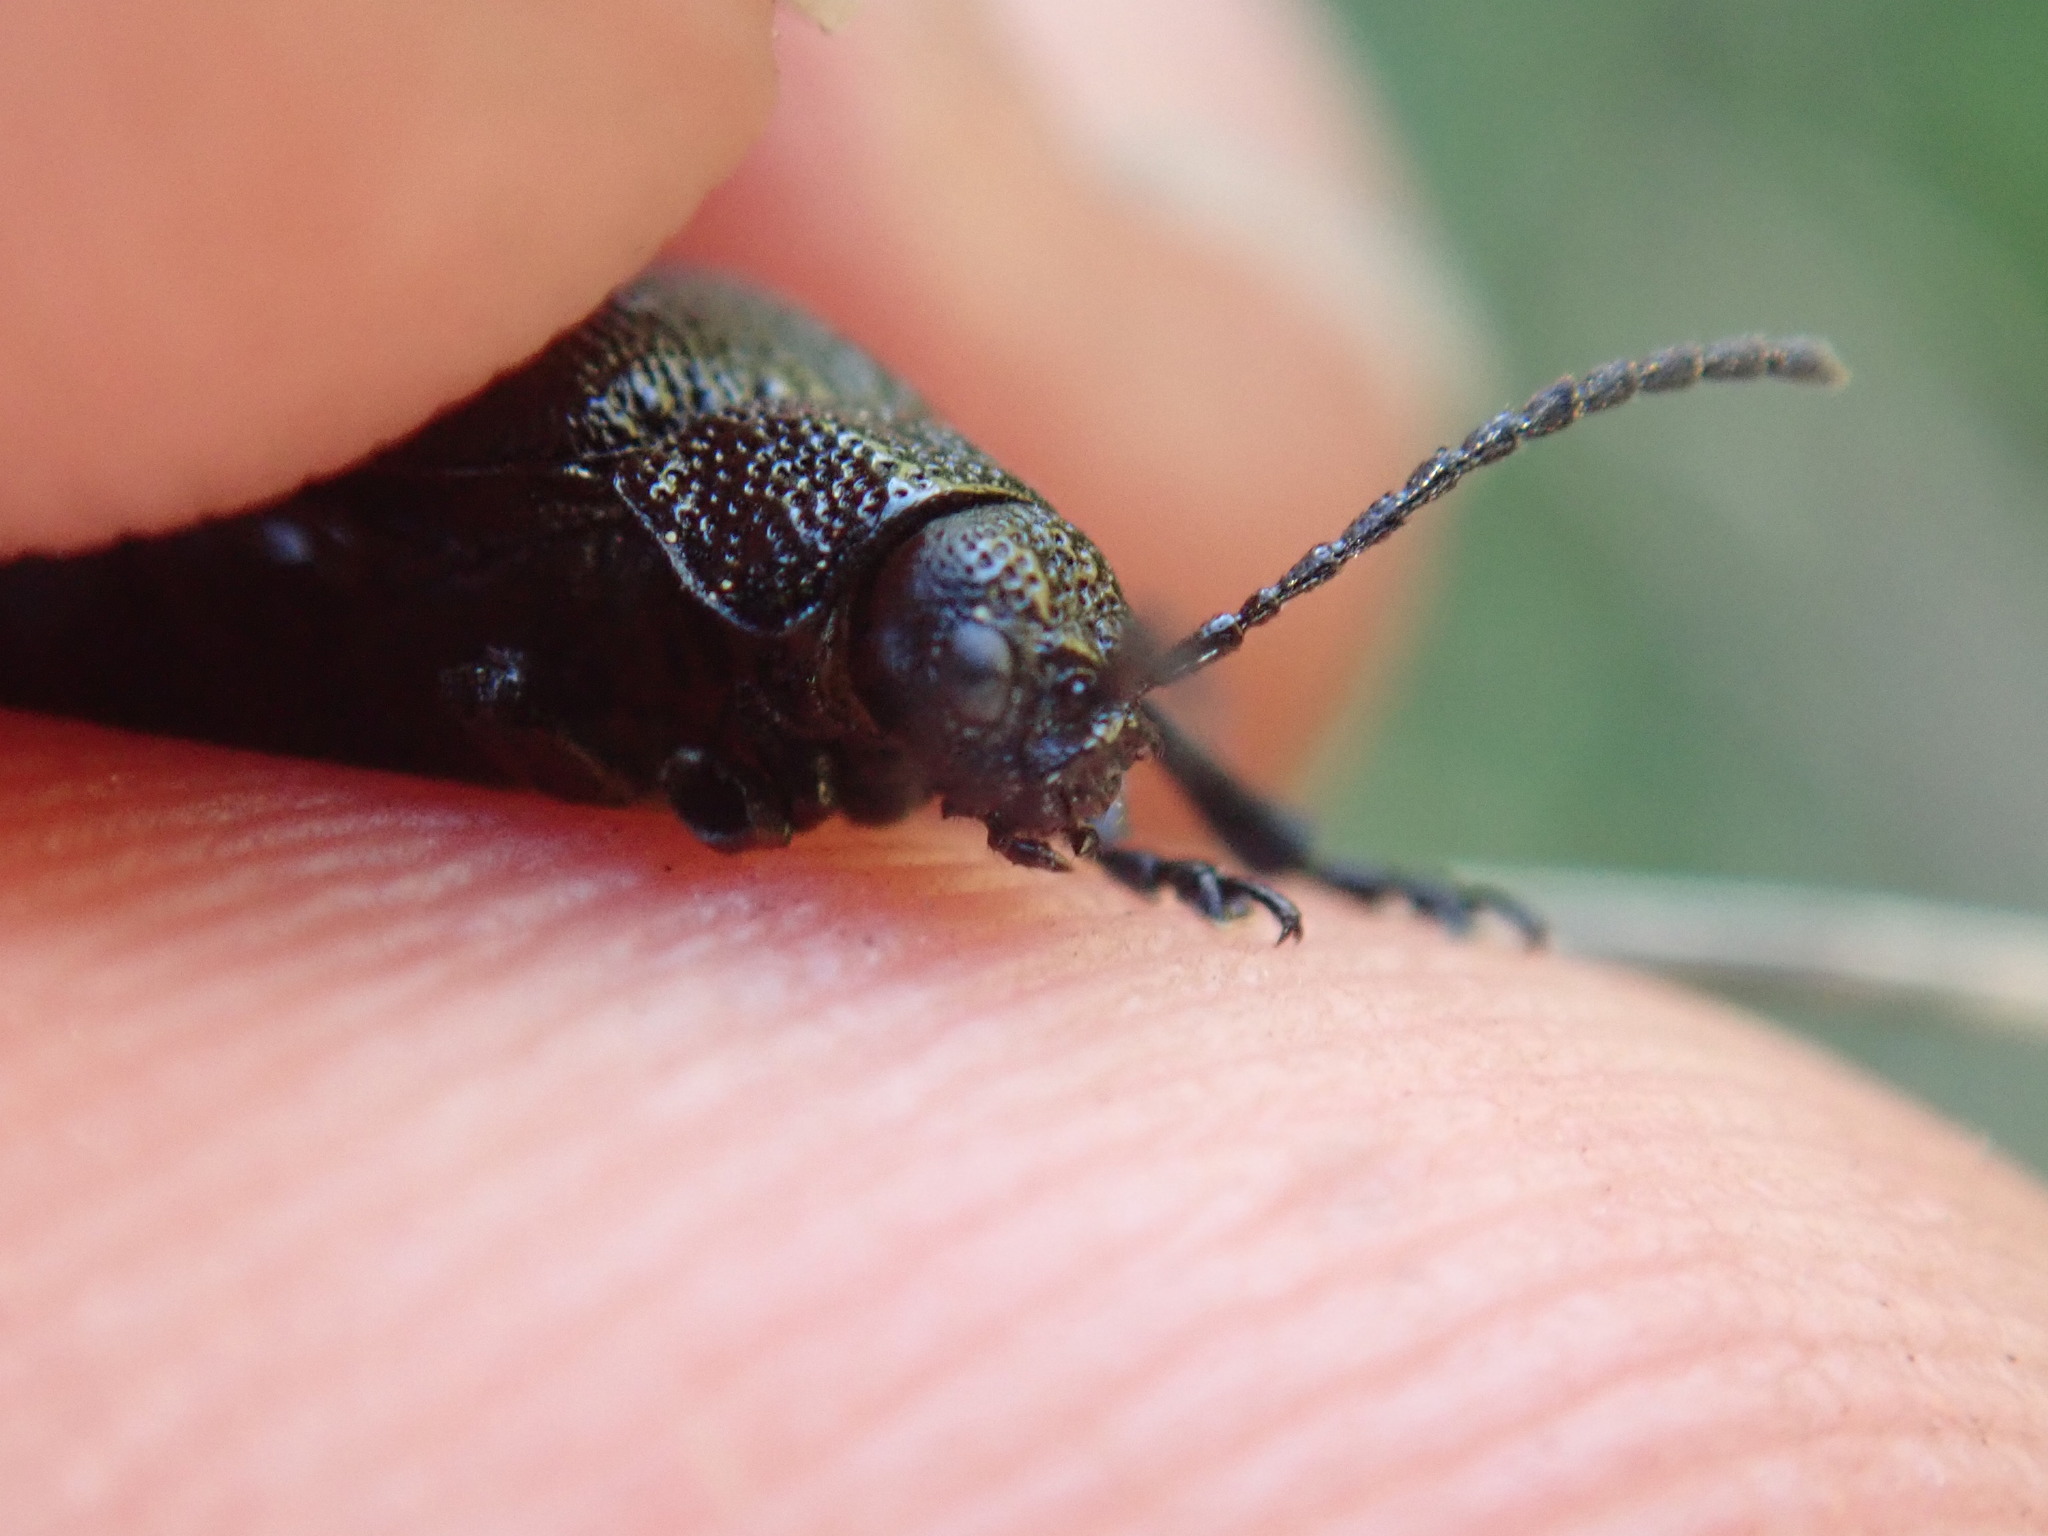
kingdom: Animalia
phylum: Arthropoda
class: Insecta
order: Coleoptera
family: Chrysomelidae
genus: Galeruca
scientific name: Galeruca tanaceti
